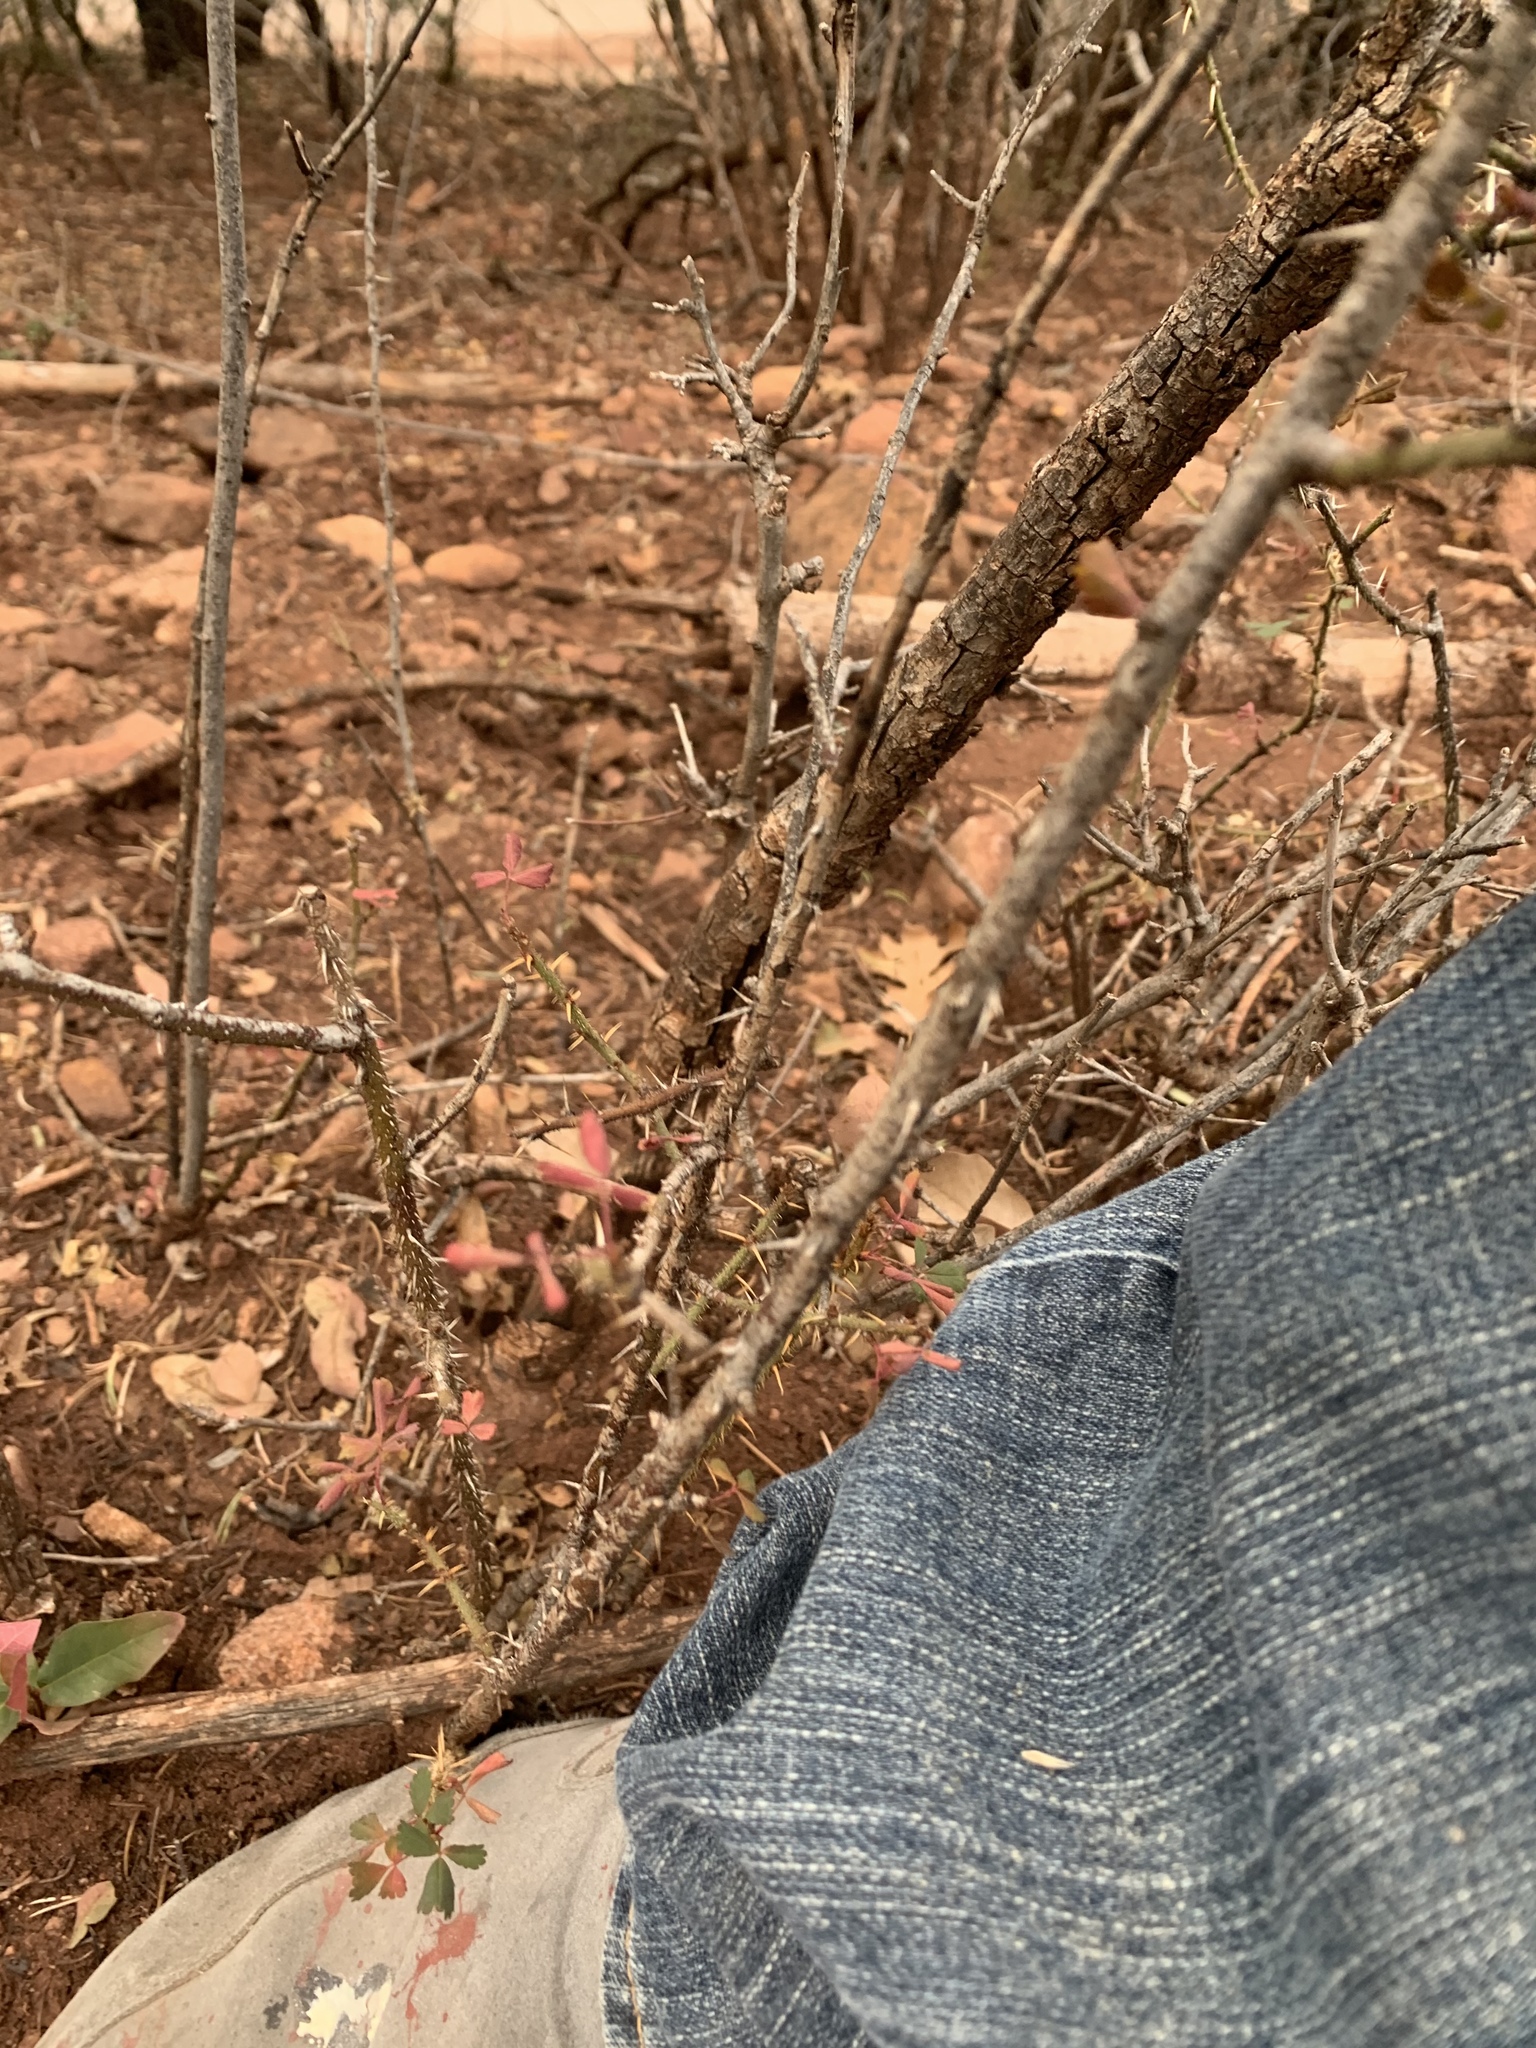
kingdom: Plantae
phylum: Tracheophyta
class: Magnoliopsida
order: Rosales
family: Rosaceae
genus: Rosa
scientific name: Rosa stellata
